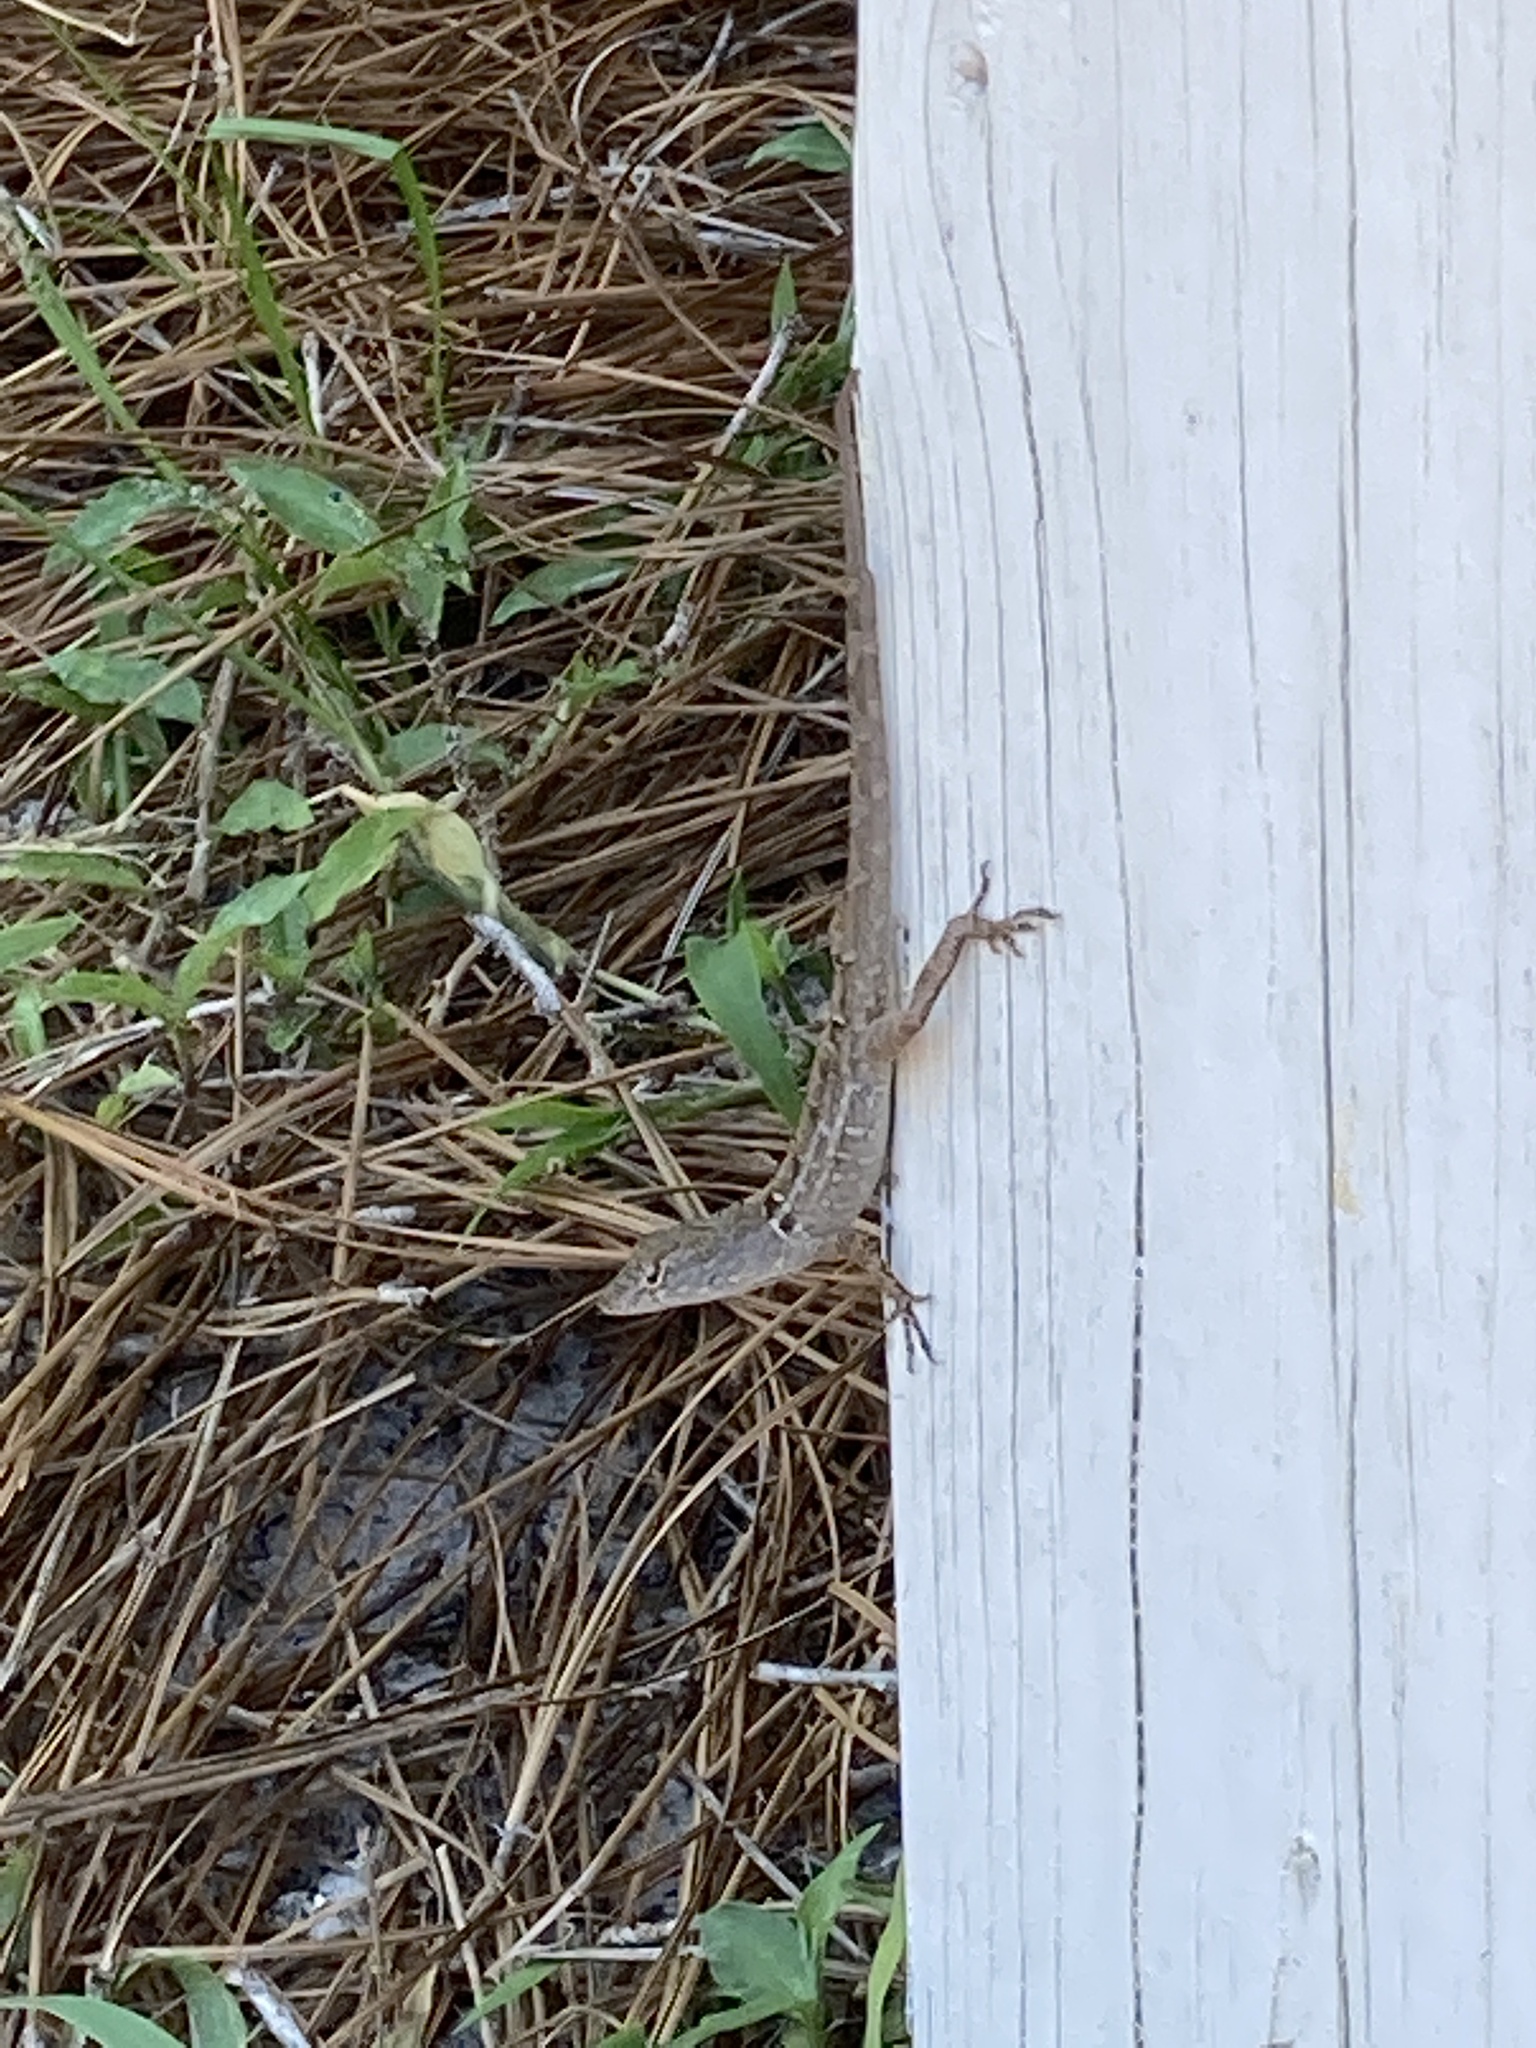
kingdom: Animalia
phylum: Chordata
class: Squamata
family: Dactyloidae
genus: Anolis
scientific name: Anolis sagrei
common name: Brown anole
